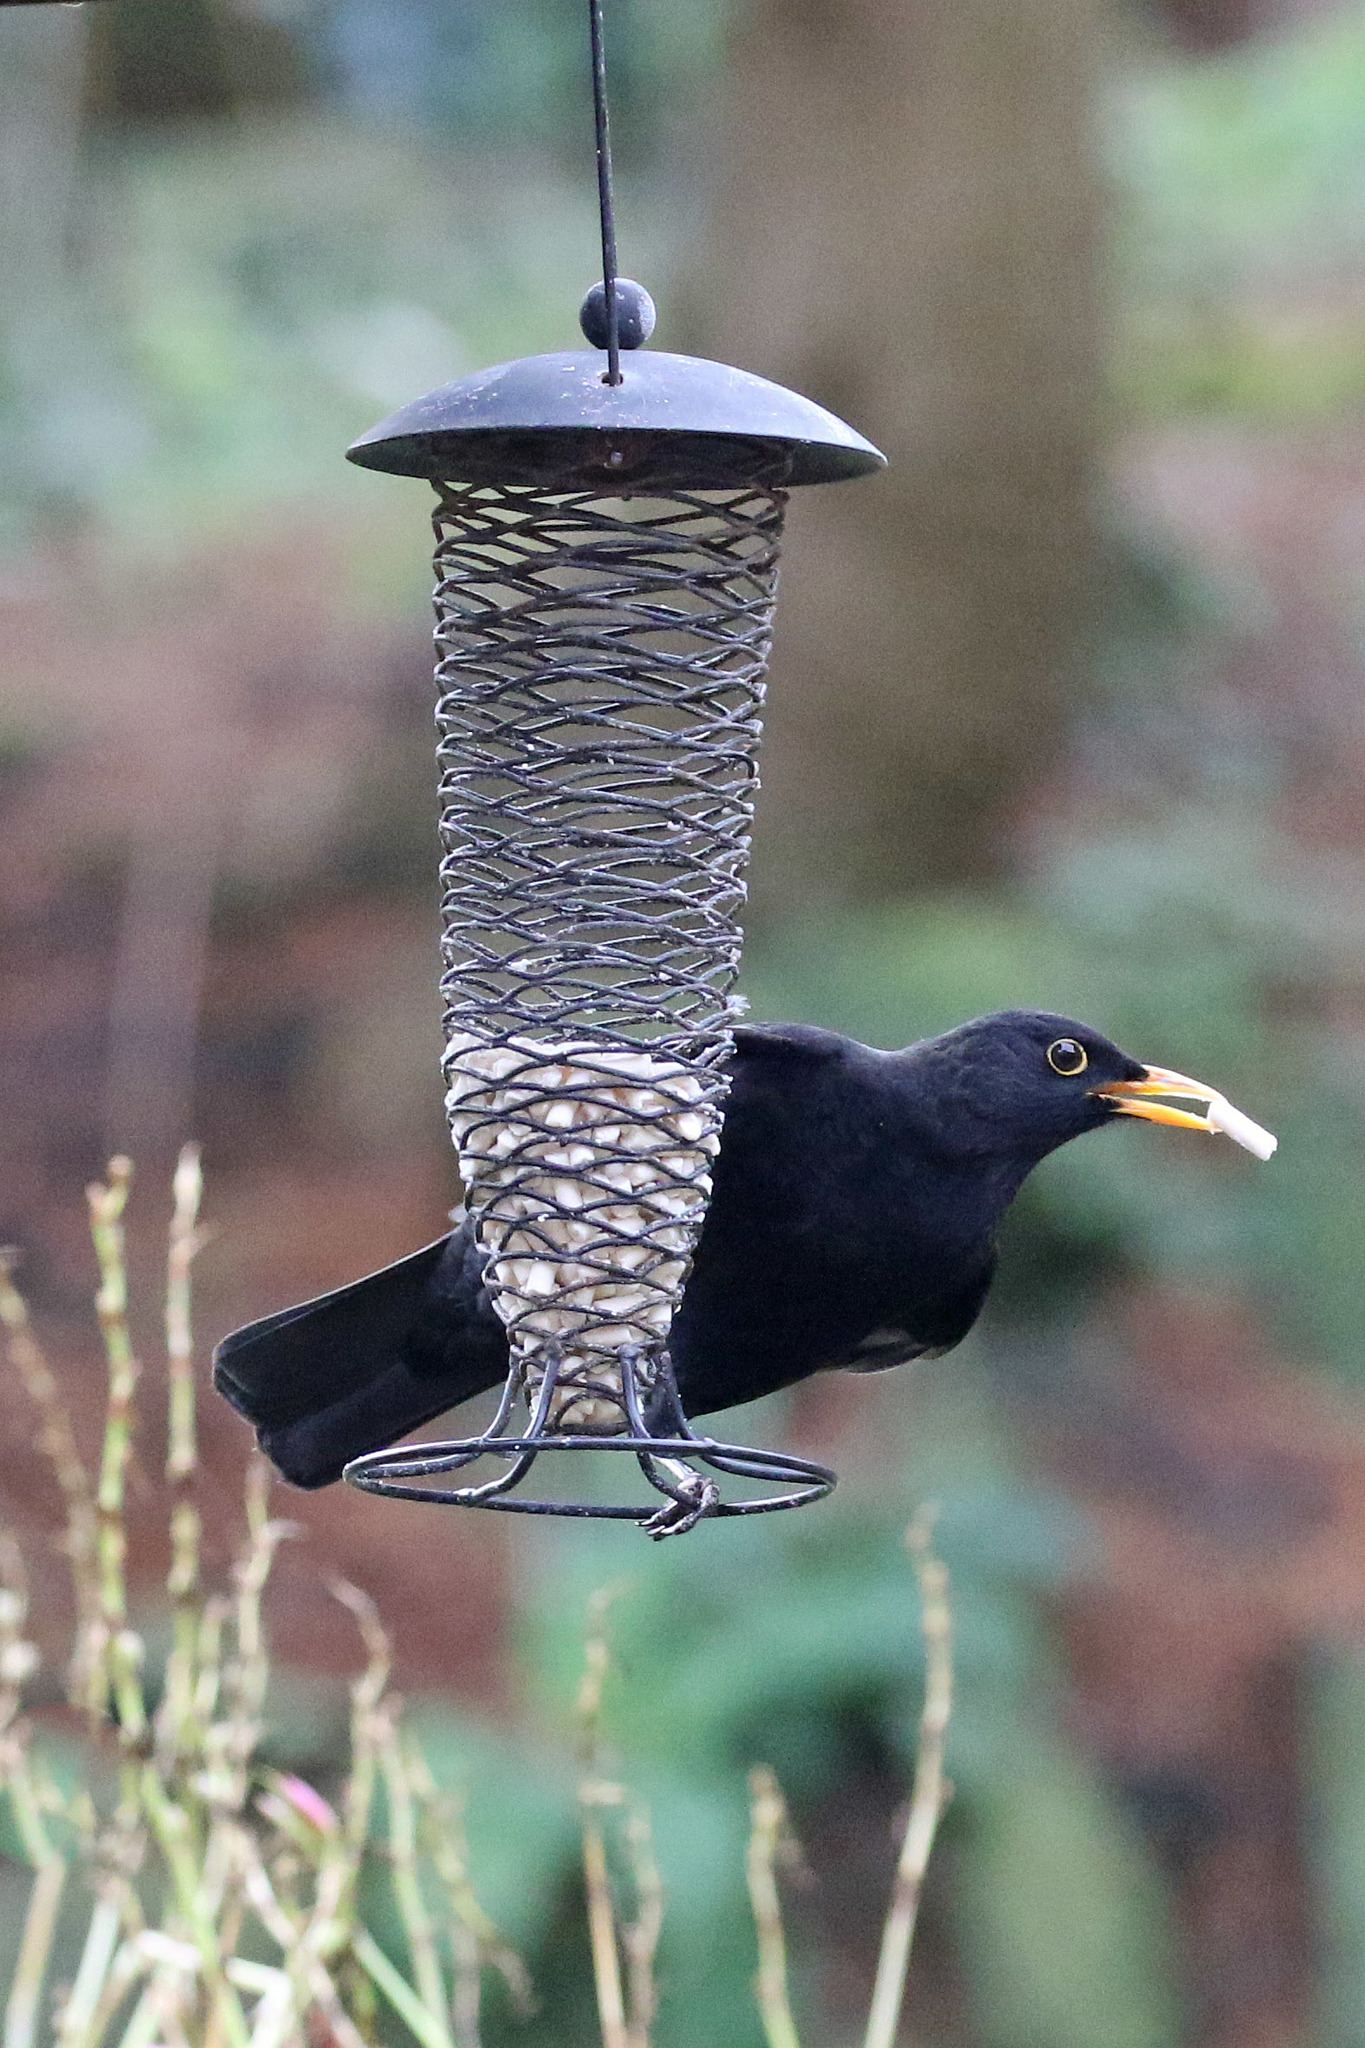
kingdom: Animalia
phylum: Chordata
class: Aves
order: Passeriformes
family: Turdidae
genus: Turdus
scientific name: Turdus merula
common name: Common blackbird
